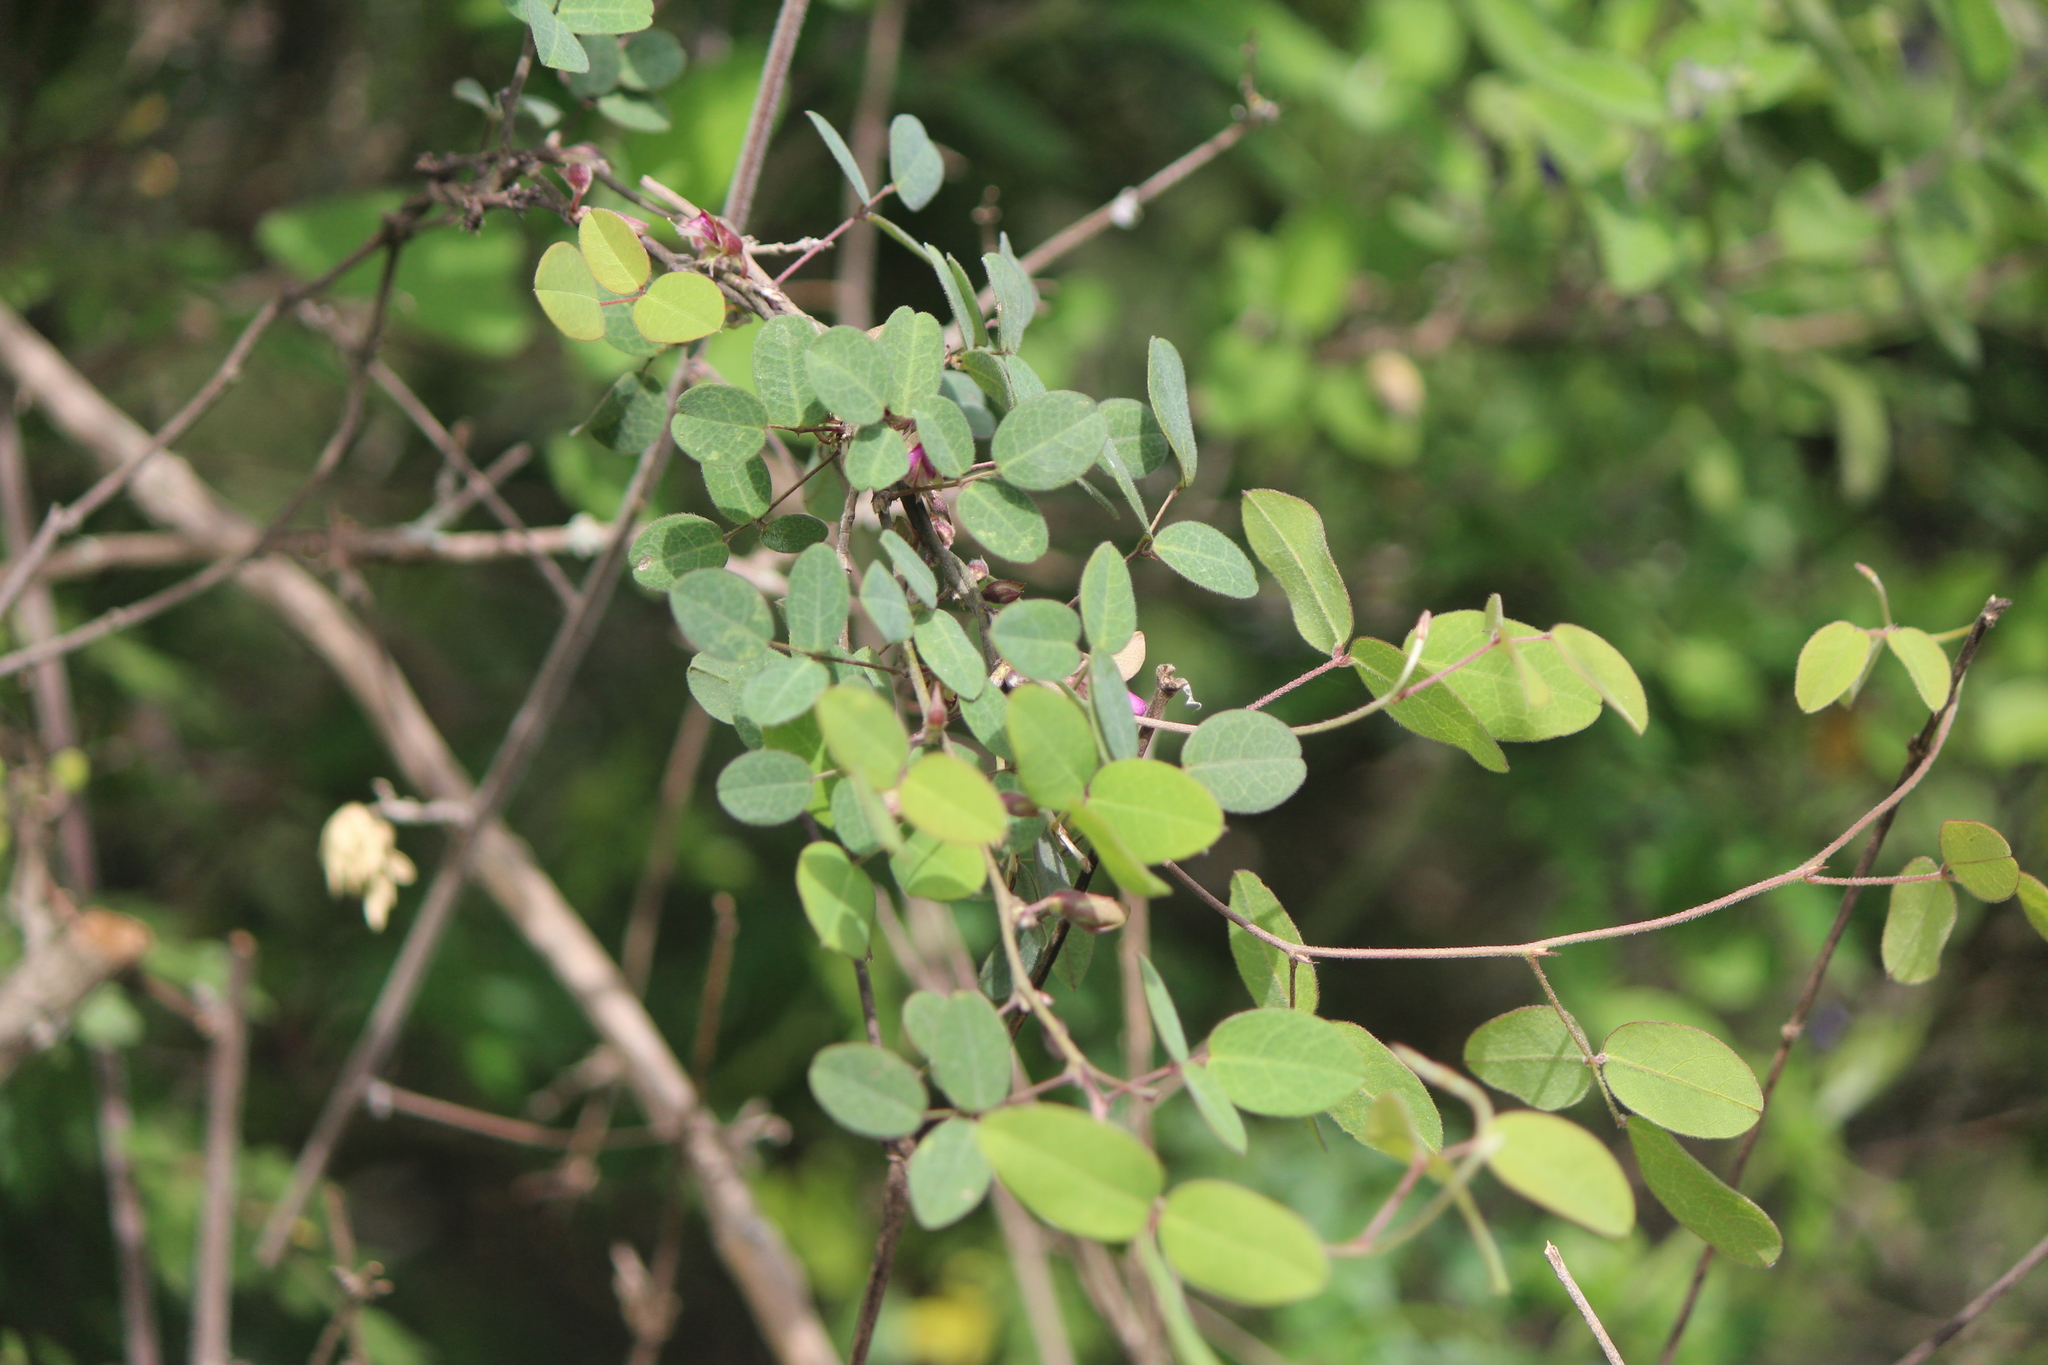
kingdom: Plantae
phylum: Tracheophyta
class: Magnoliopsida
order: Fabales
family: Fabaceae
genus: Nanogalactia
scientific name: Nanogalactia brachystachys
